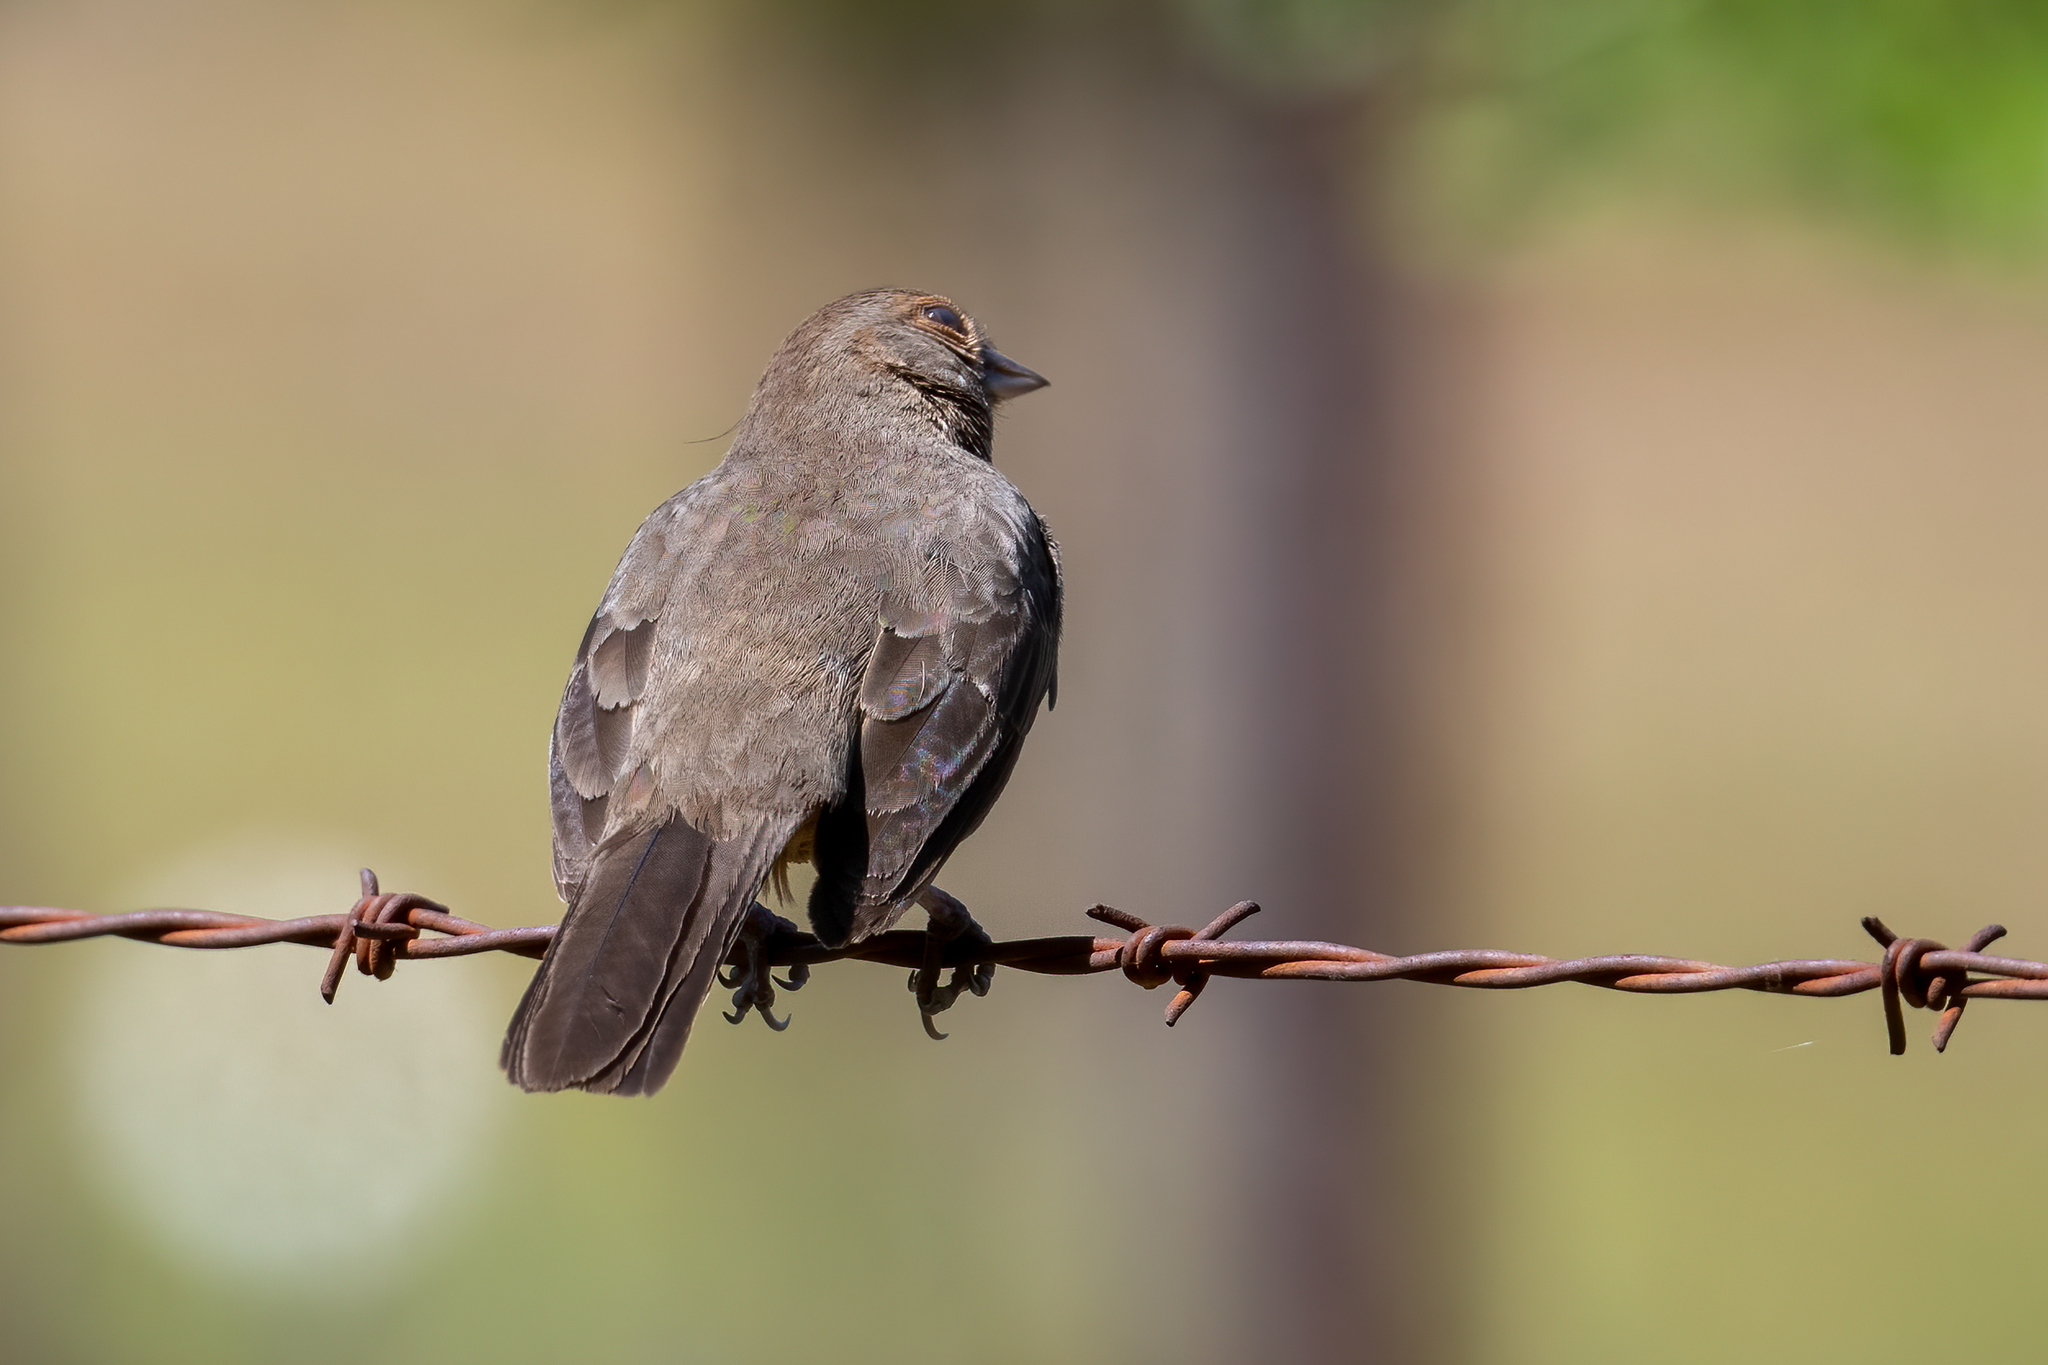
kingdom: Animalia
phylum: Chordata
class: Aves
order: Passeriformes
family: Passerellidae
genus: Melozone
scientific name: Melozone crissalis
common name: California towhee
